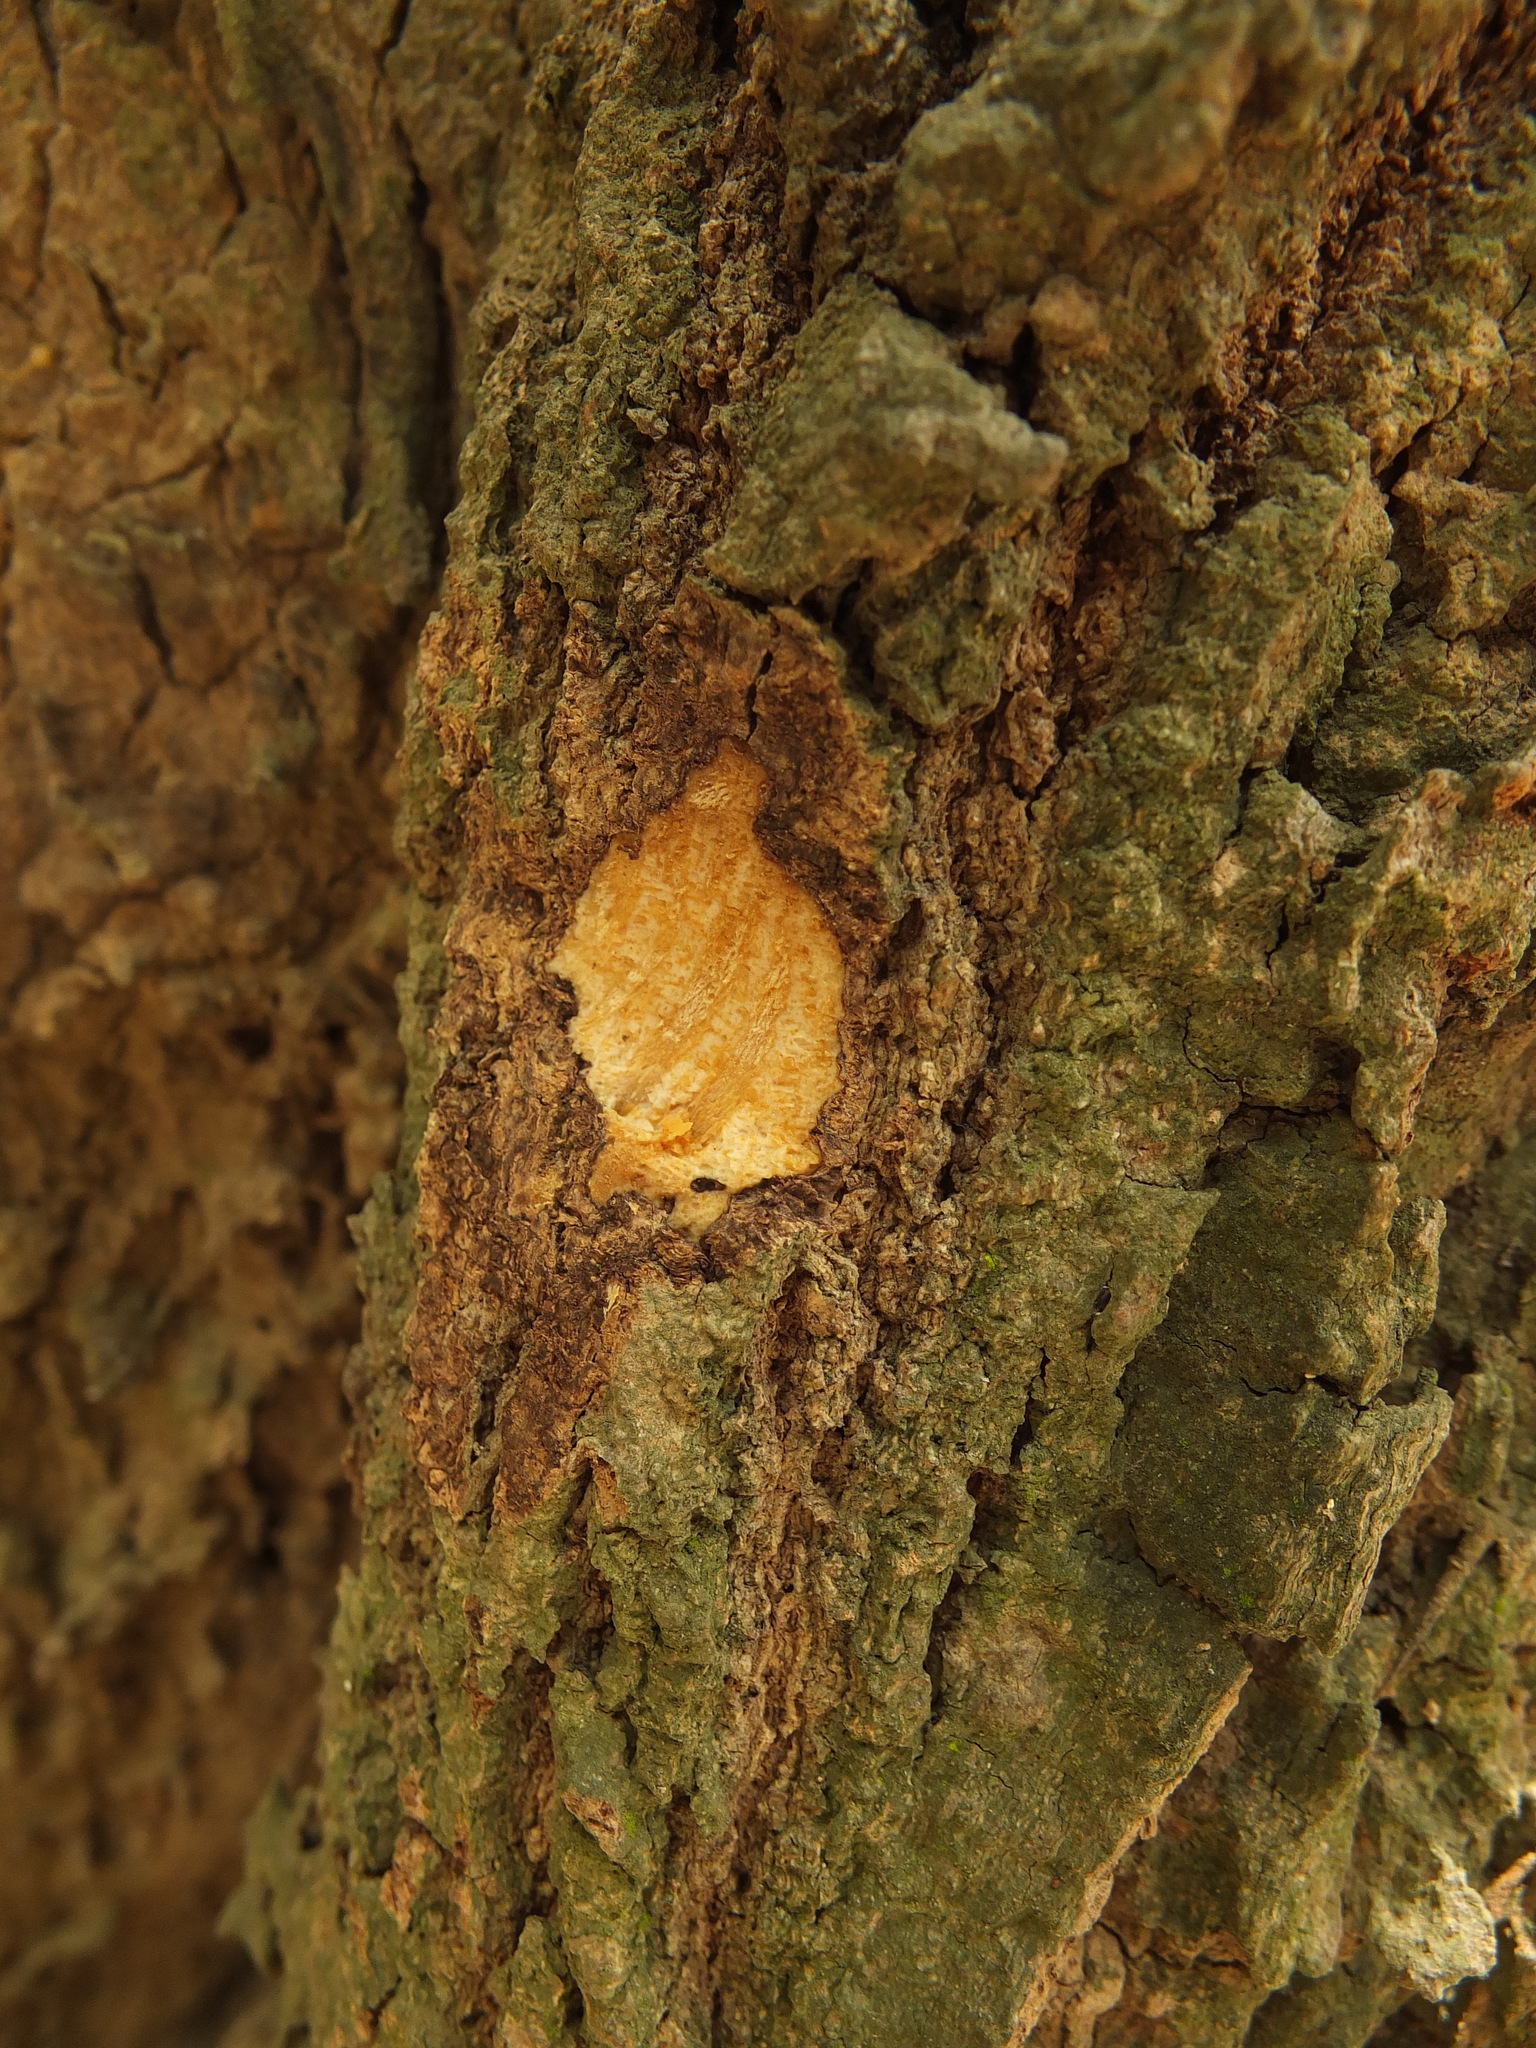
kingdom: Plantae
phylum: Tracheophyta
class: Magnoliopsida
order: Brassicales
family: Capparaceae
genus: Capparis
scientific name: Capparis grandis
